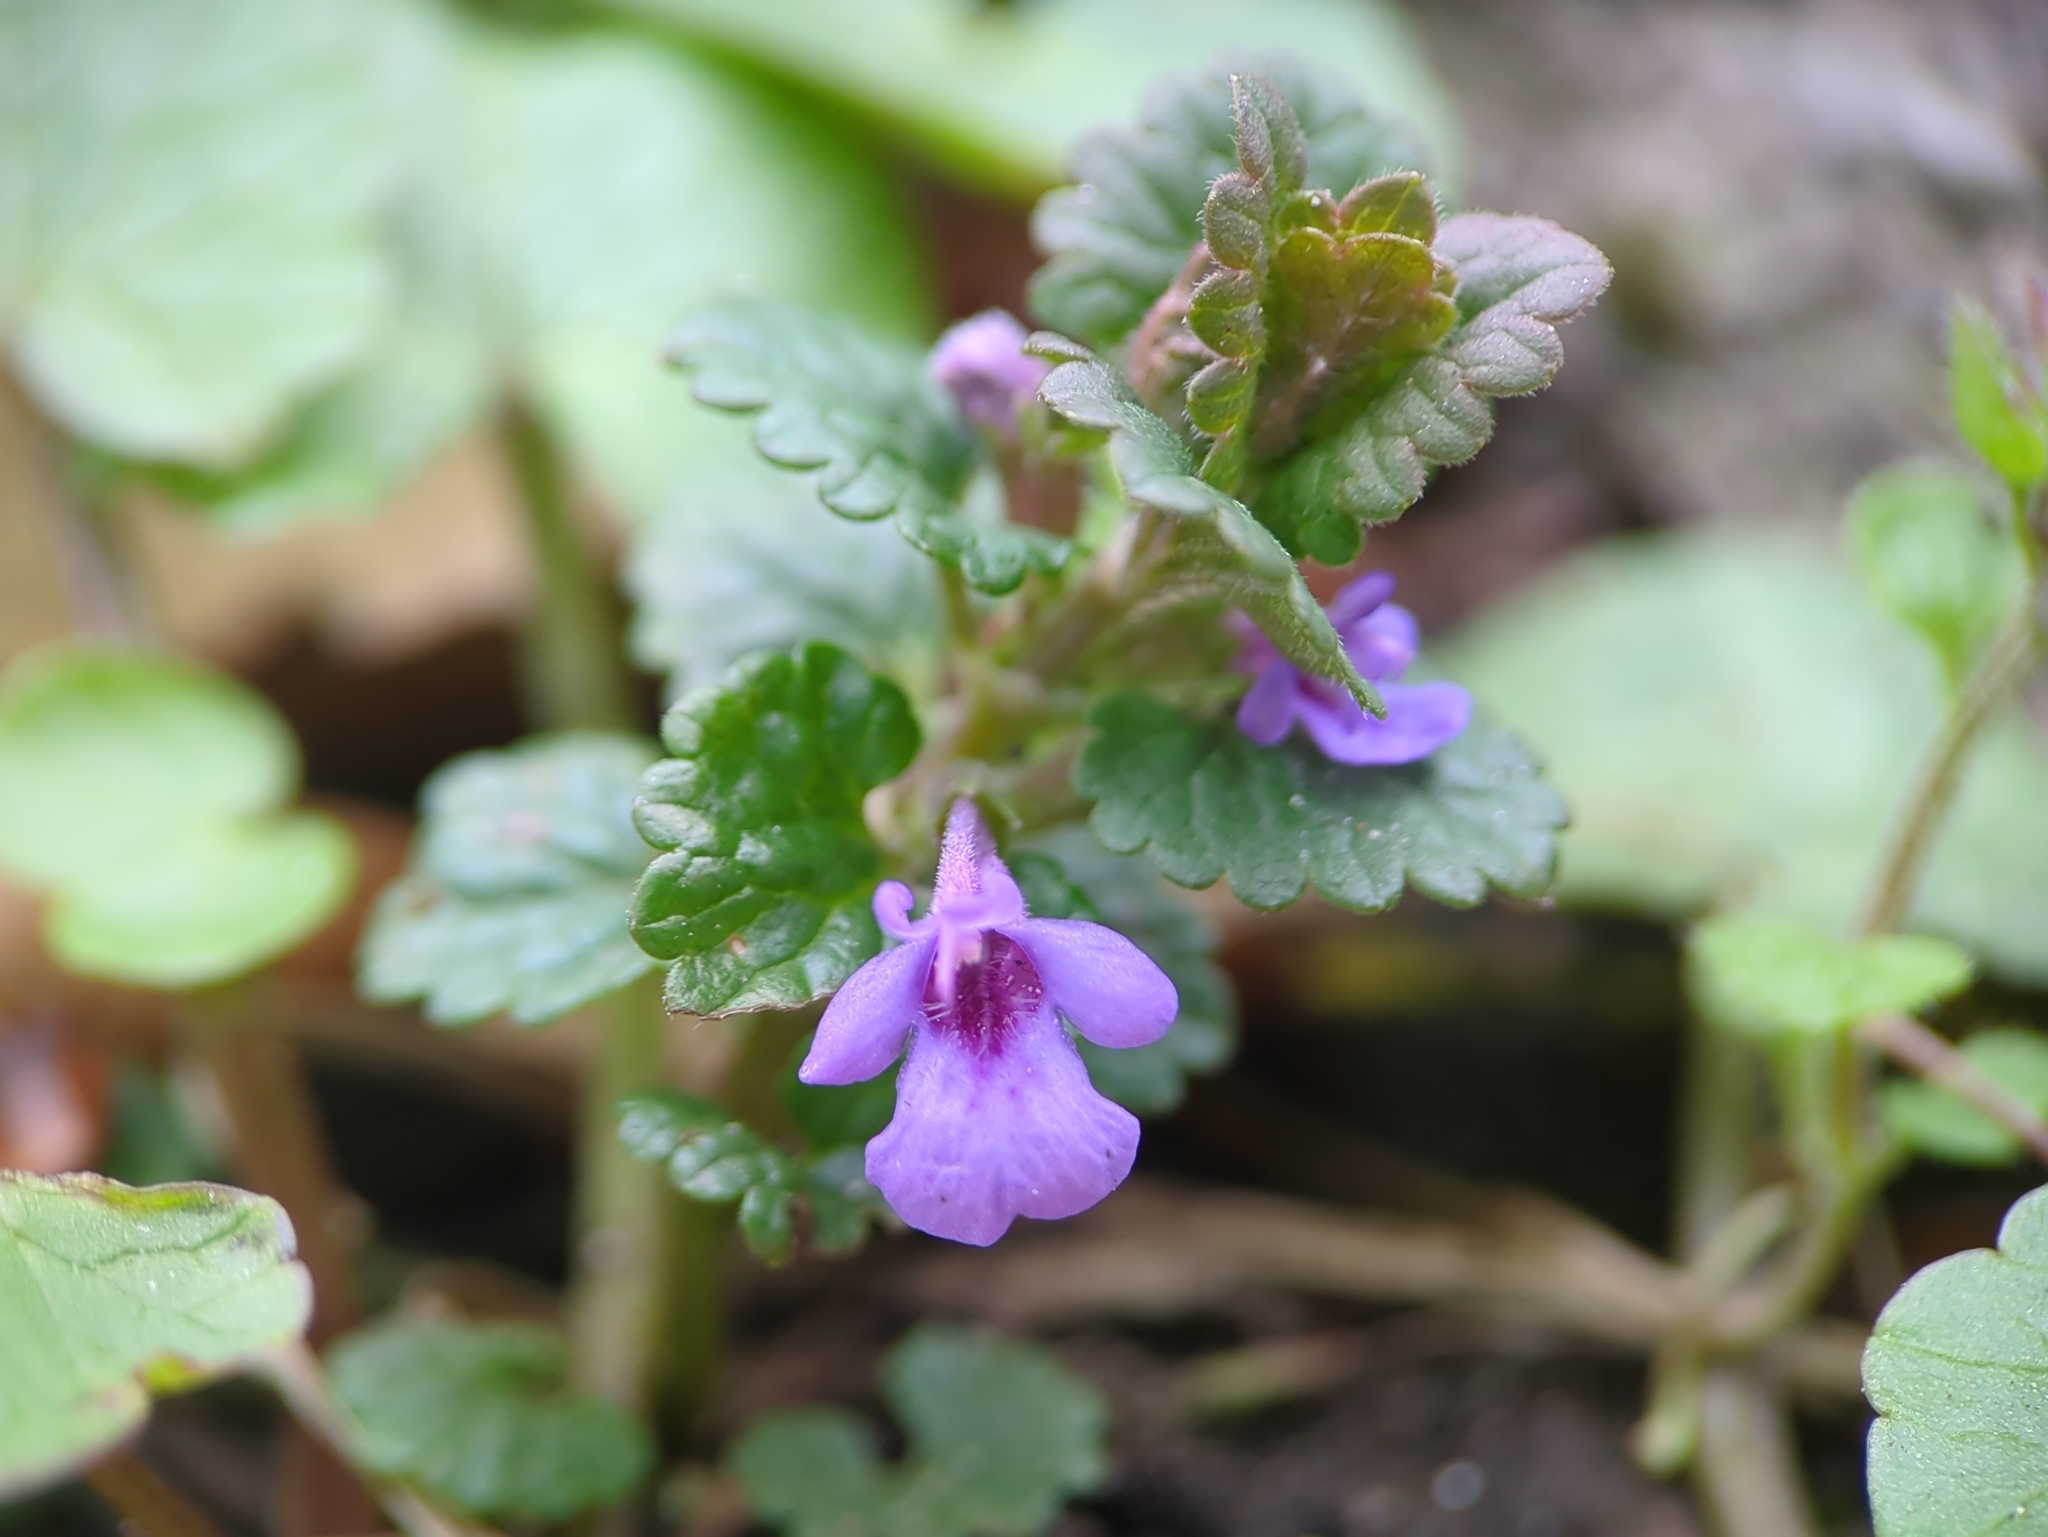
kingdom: Plantae
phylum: Tracheophyta
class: Magnoliopsida
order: Lamiales
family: Lamiaceae
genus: Glechoma
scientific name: Glechoma hederacea
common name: Ground ivy
